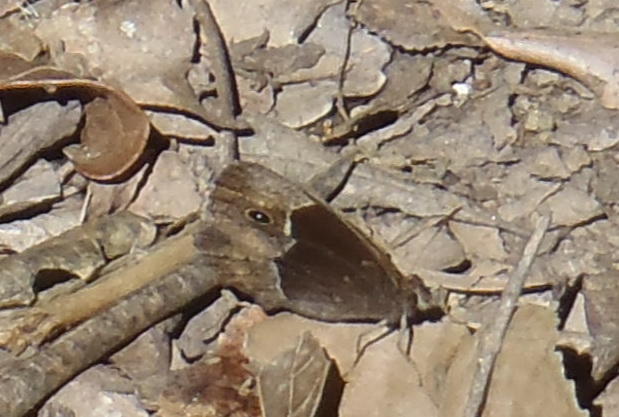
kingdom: Animalia
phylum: Arthropoda
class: Insecta
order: Lepidoptera
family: Nymphalidae
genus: Mycalesis
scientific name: Mycalesis rhacotis
